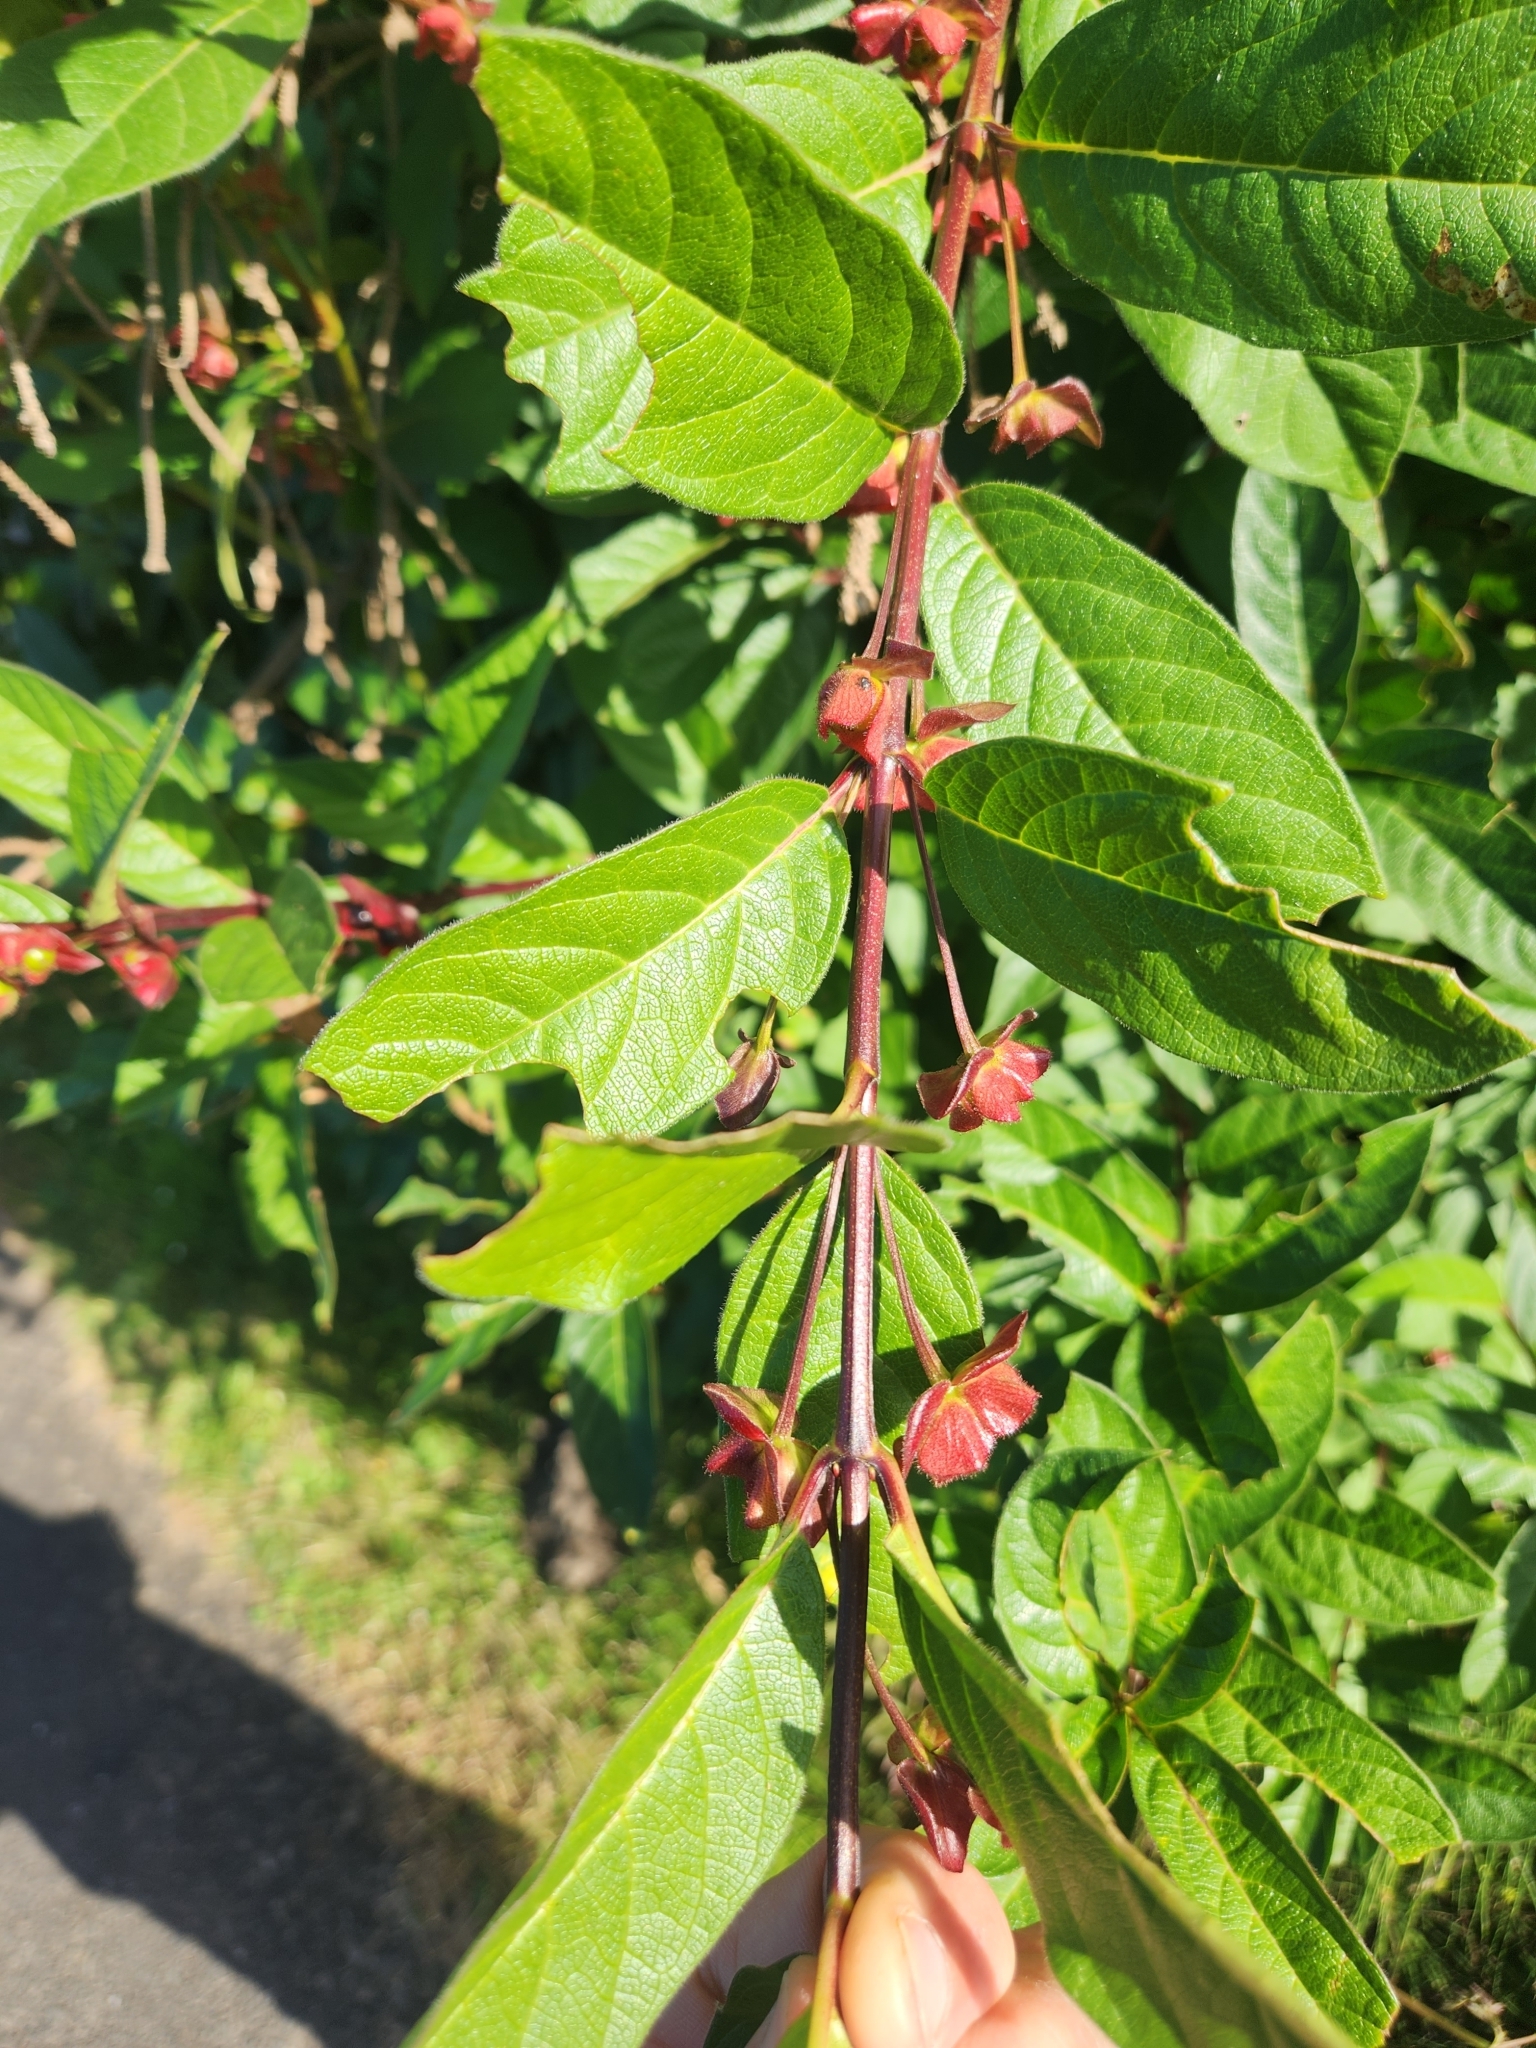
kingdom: Plantae
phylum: Tracheophyta
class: Magnoliopsida
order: Dipsacales
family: Caprifoliaceae
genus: Lonicera
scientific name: Lonicera involucrata
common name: Californian honeysuckle
